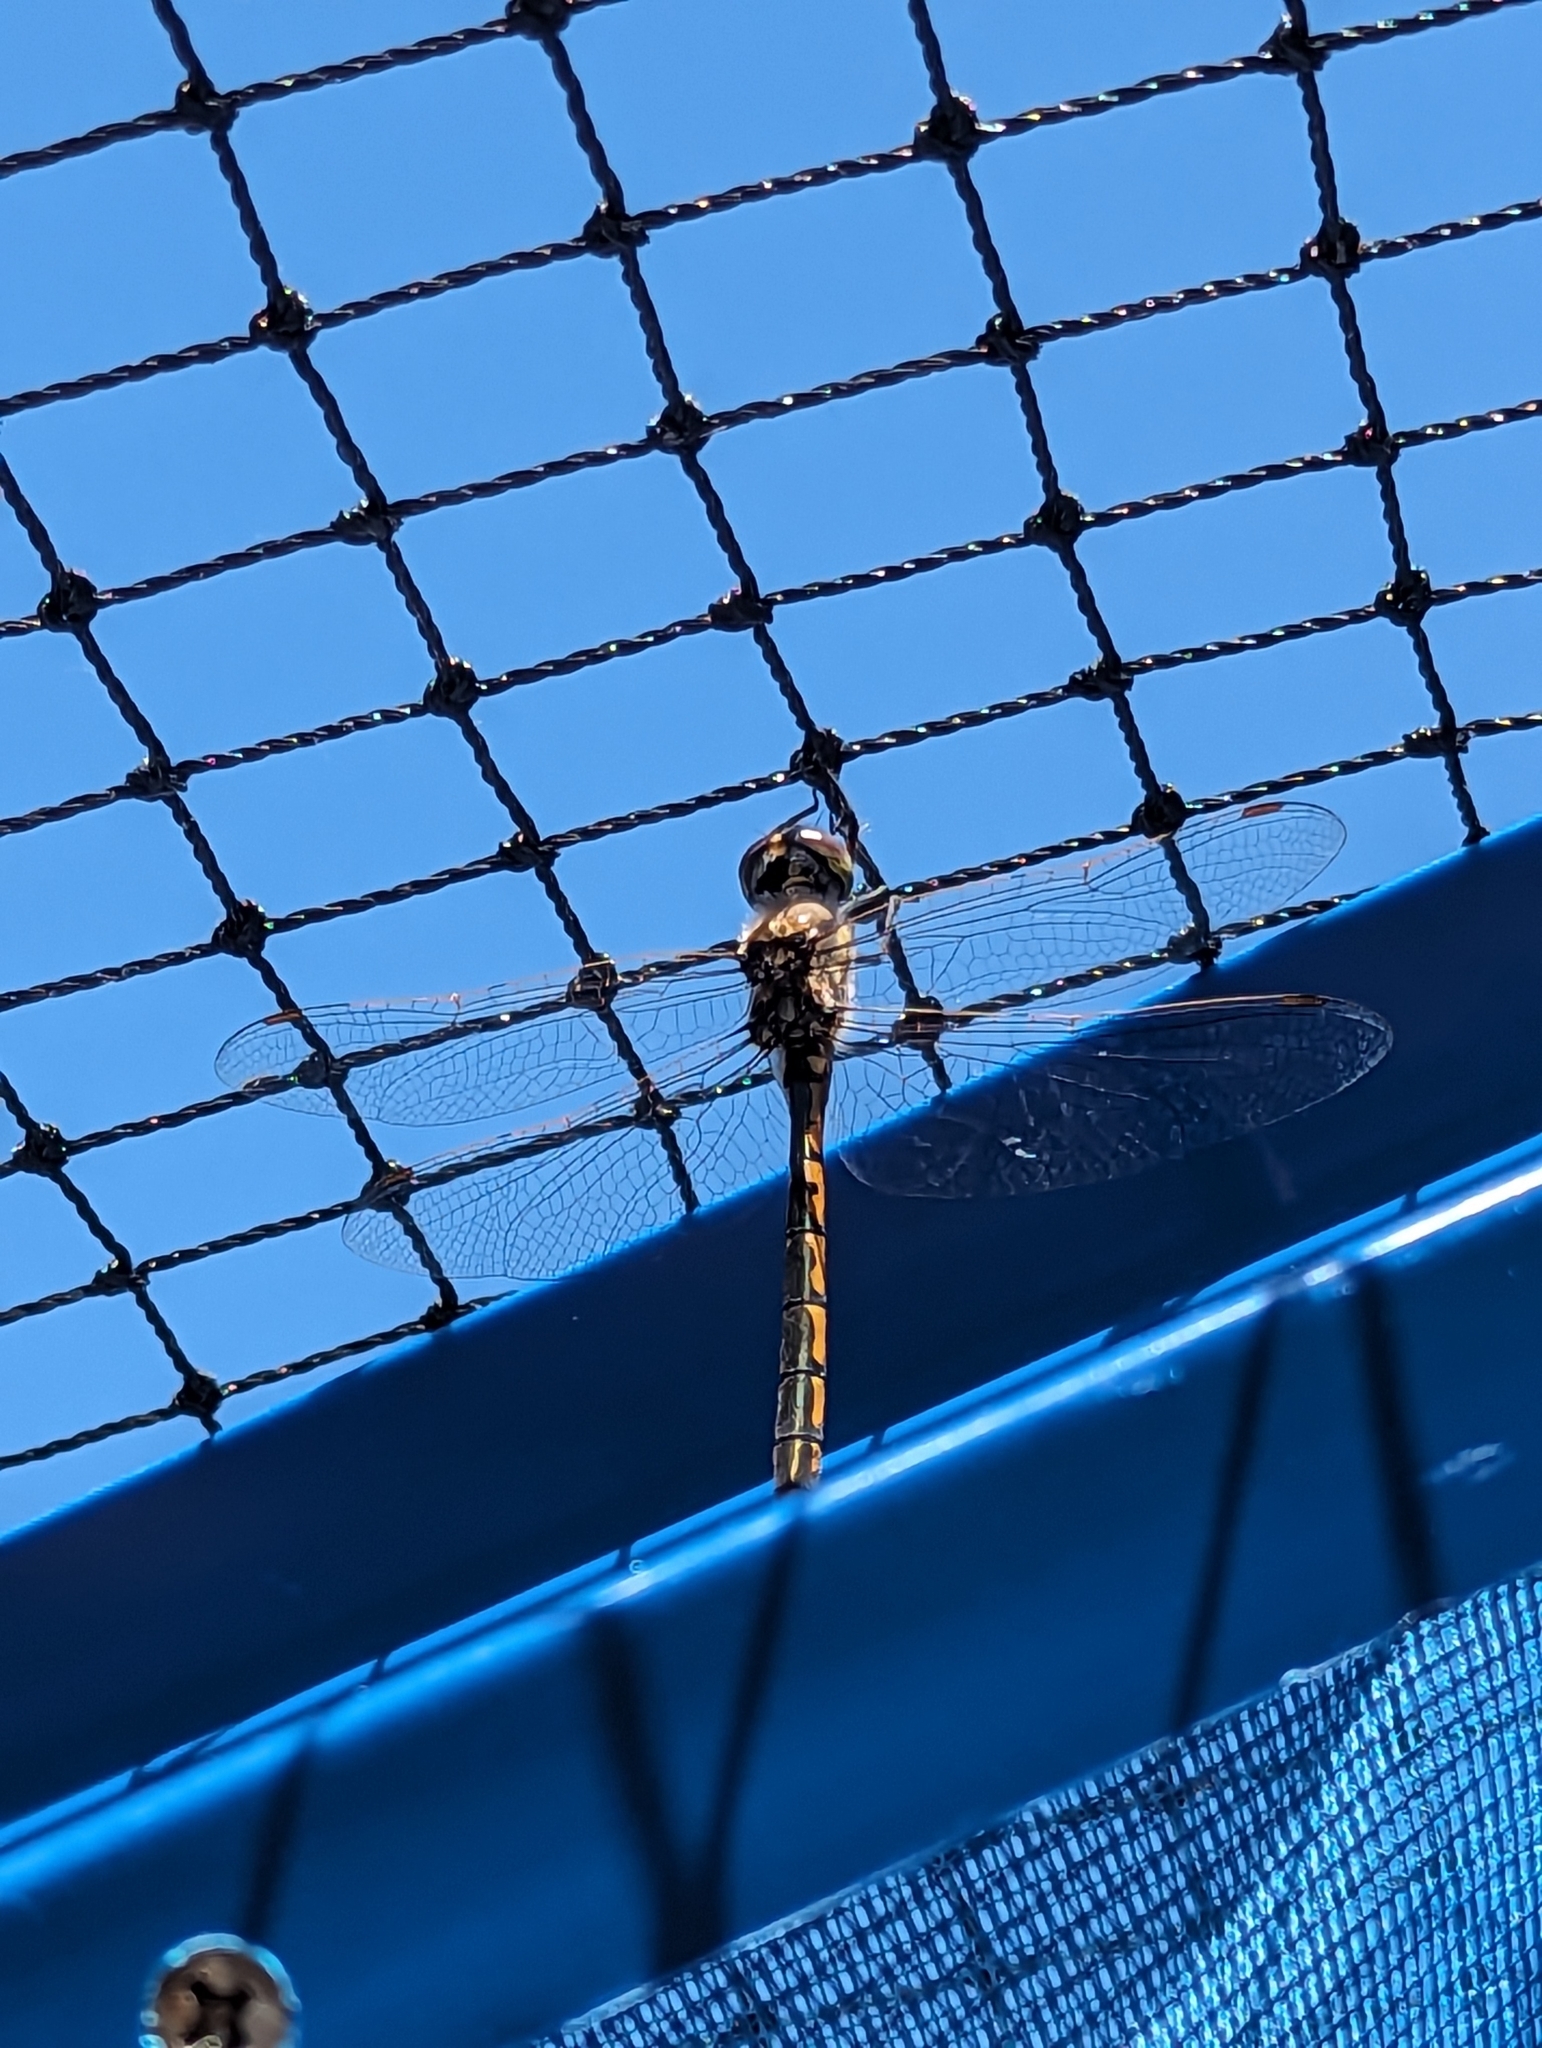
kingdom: Animalia
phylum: Arthropoda
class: Insecta
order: Odonata
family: Corduliidae
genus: Hemicordulia
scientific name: Hemicordulia tau
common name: Tau emerald
